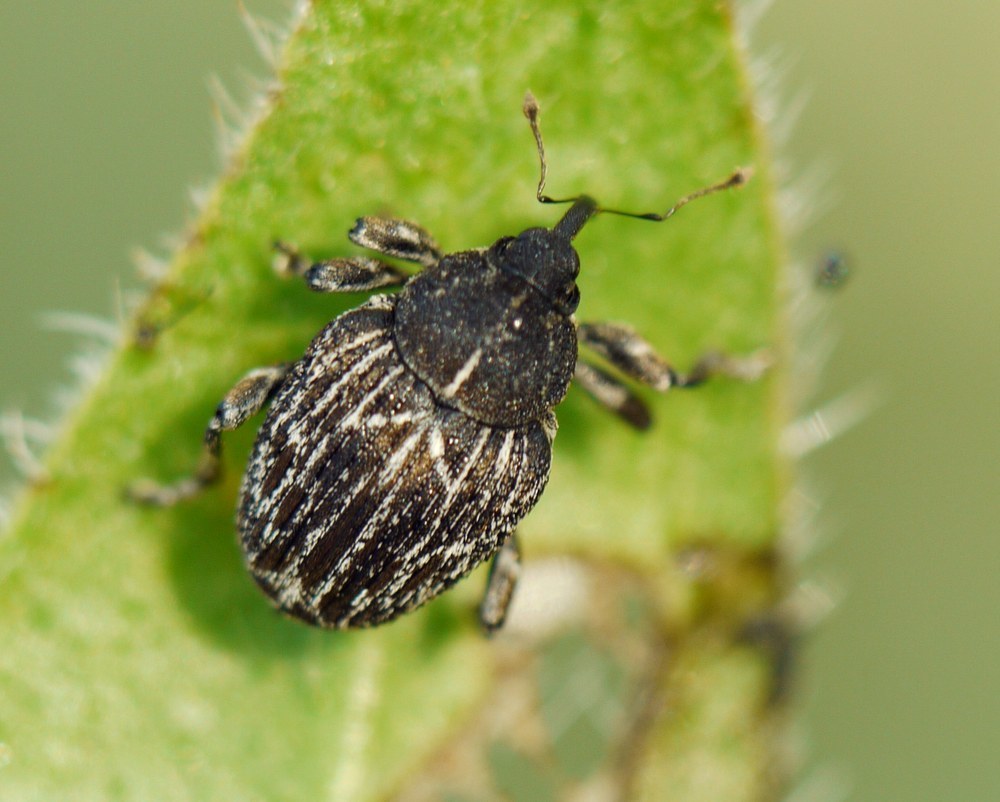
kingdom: Animalia
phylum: Arthropoda
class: Insecta
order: Coleoptera
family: Curculionidae
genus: Mogulones
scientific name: Mogulones geographicus
